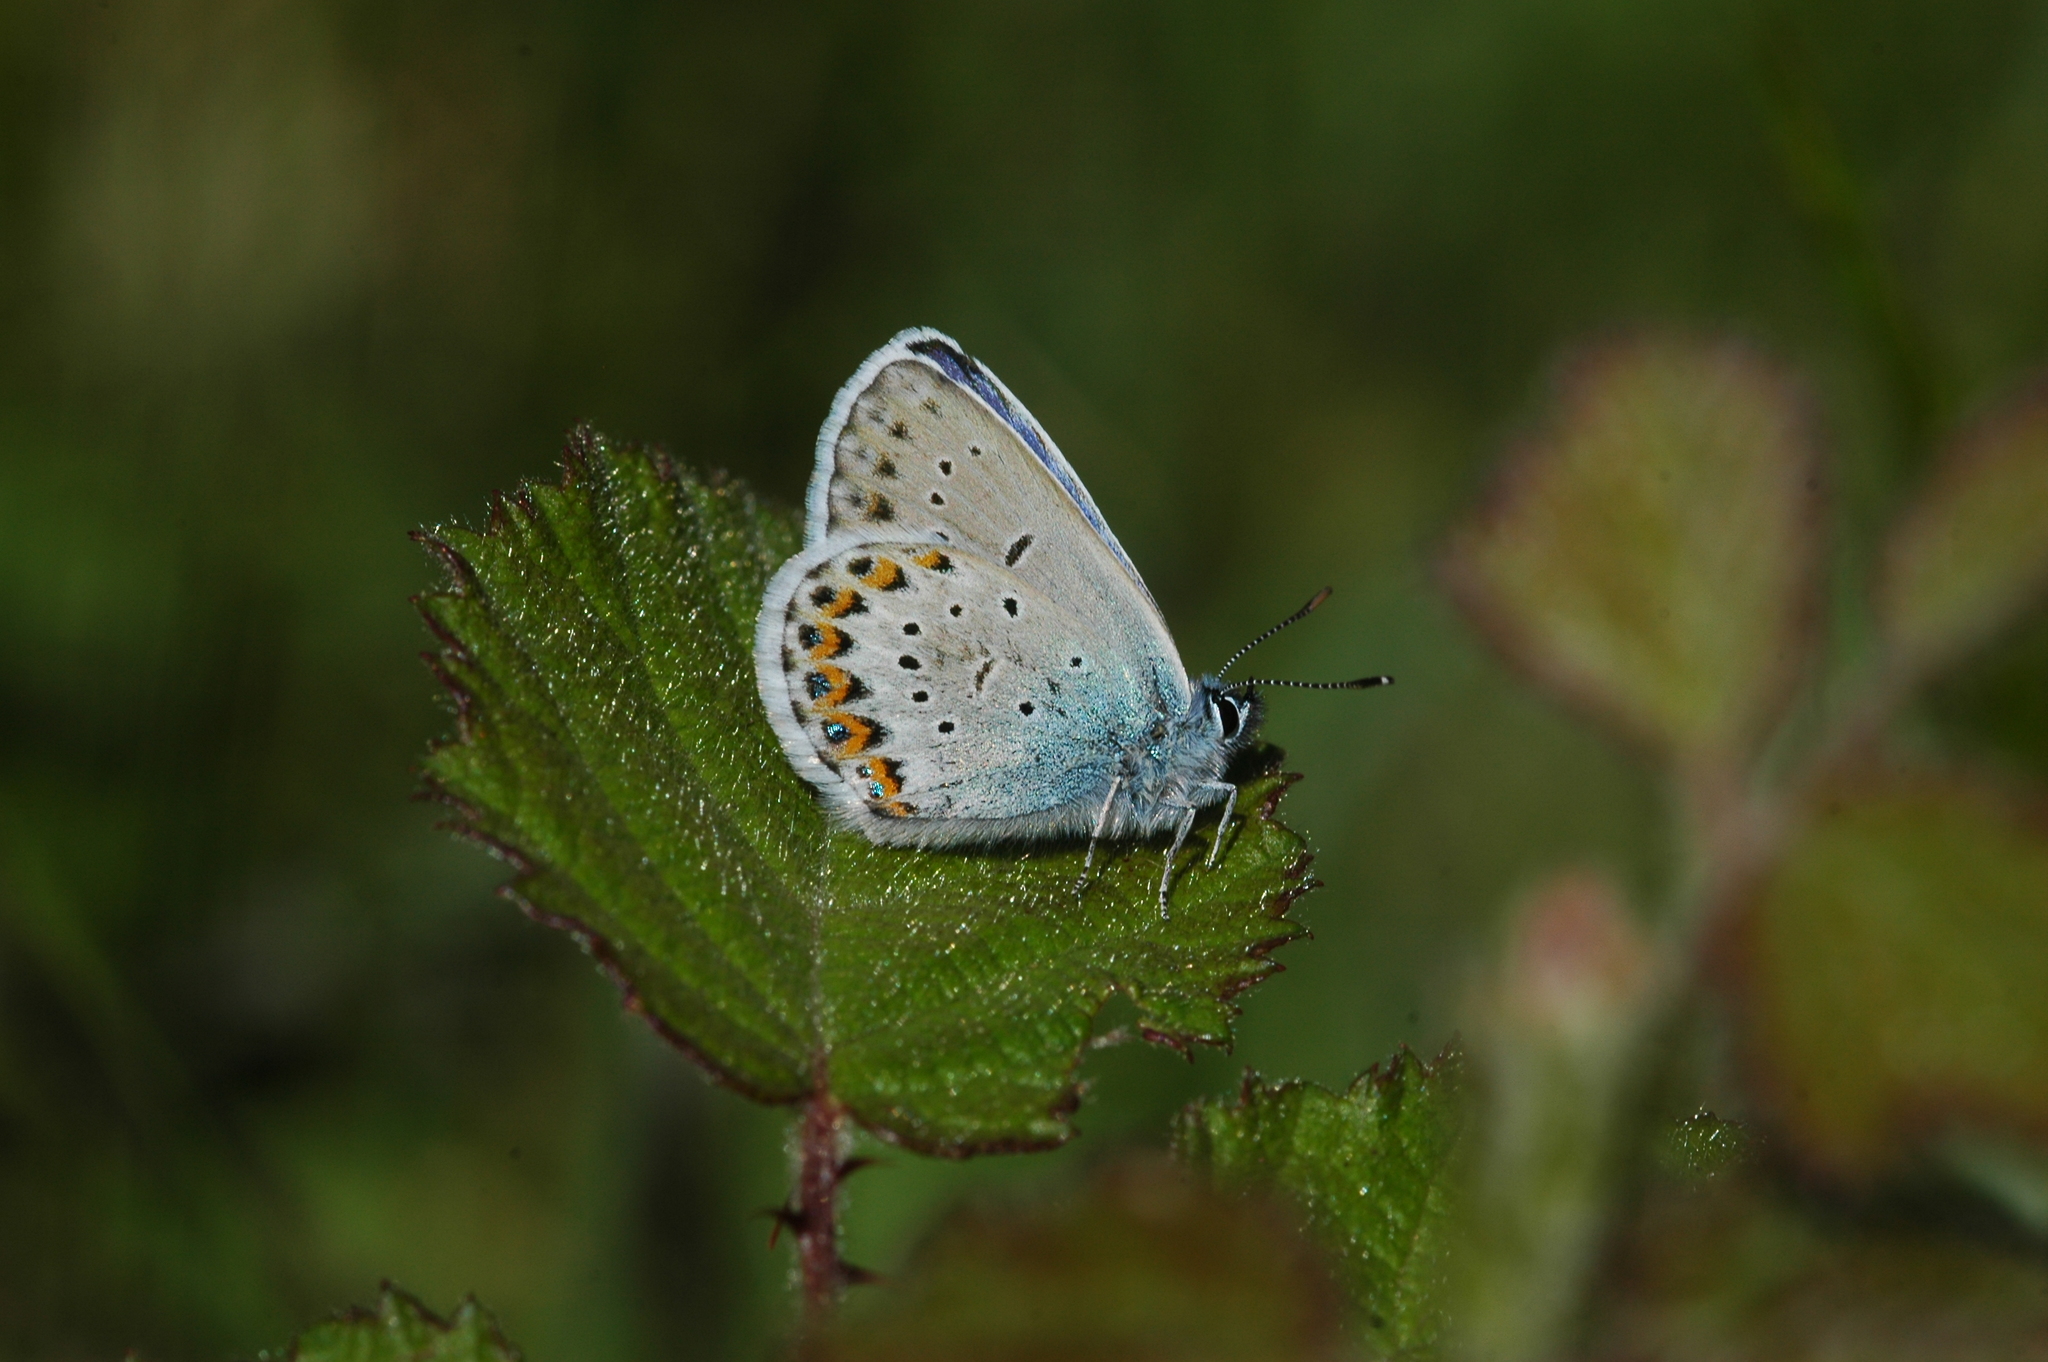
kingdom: Animalia
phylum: Arthropoda
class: Insecta
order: Lepidoptera
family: Lycaenidae
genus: Lycaeides
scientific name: Lycaeides idas
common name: Northern blue
